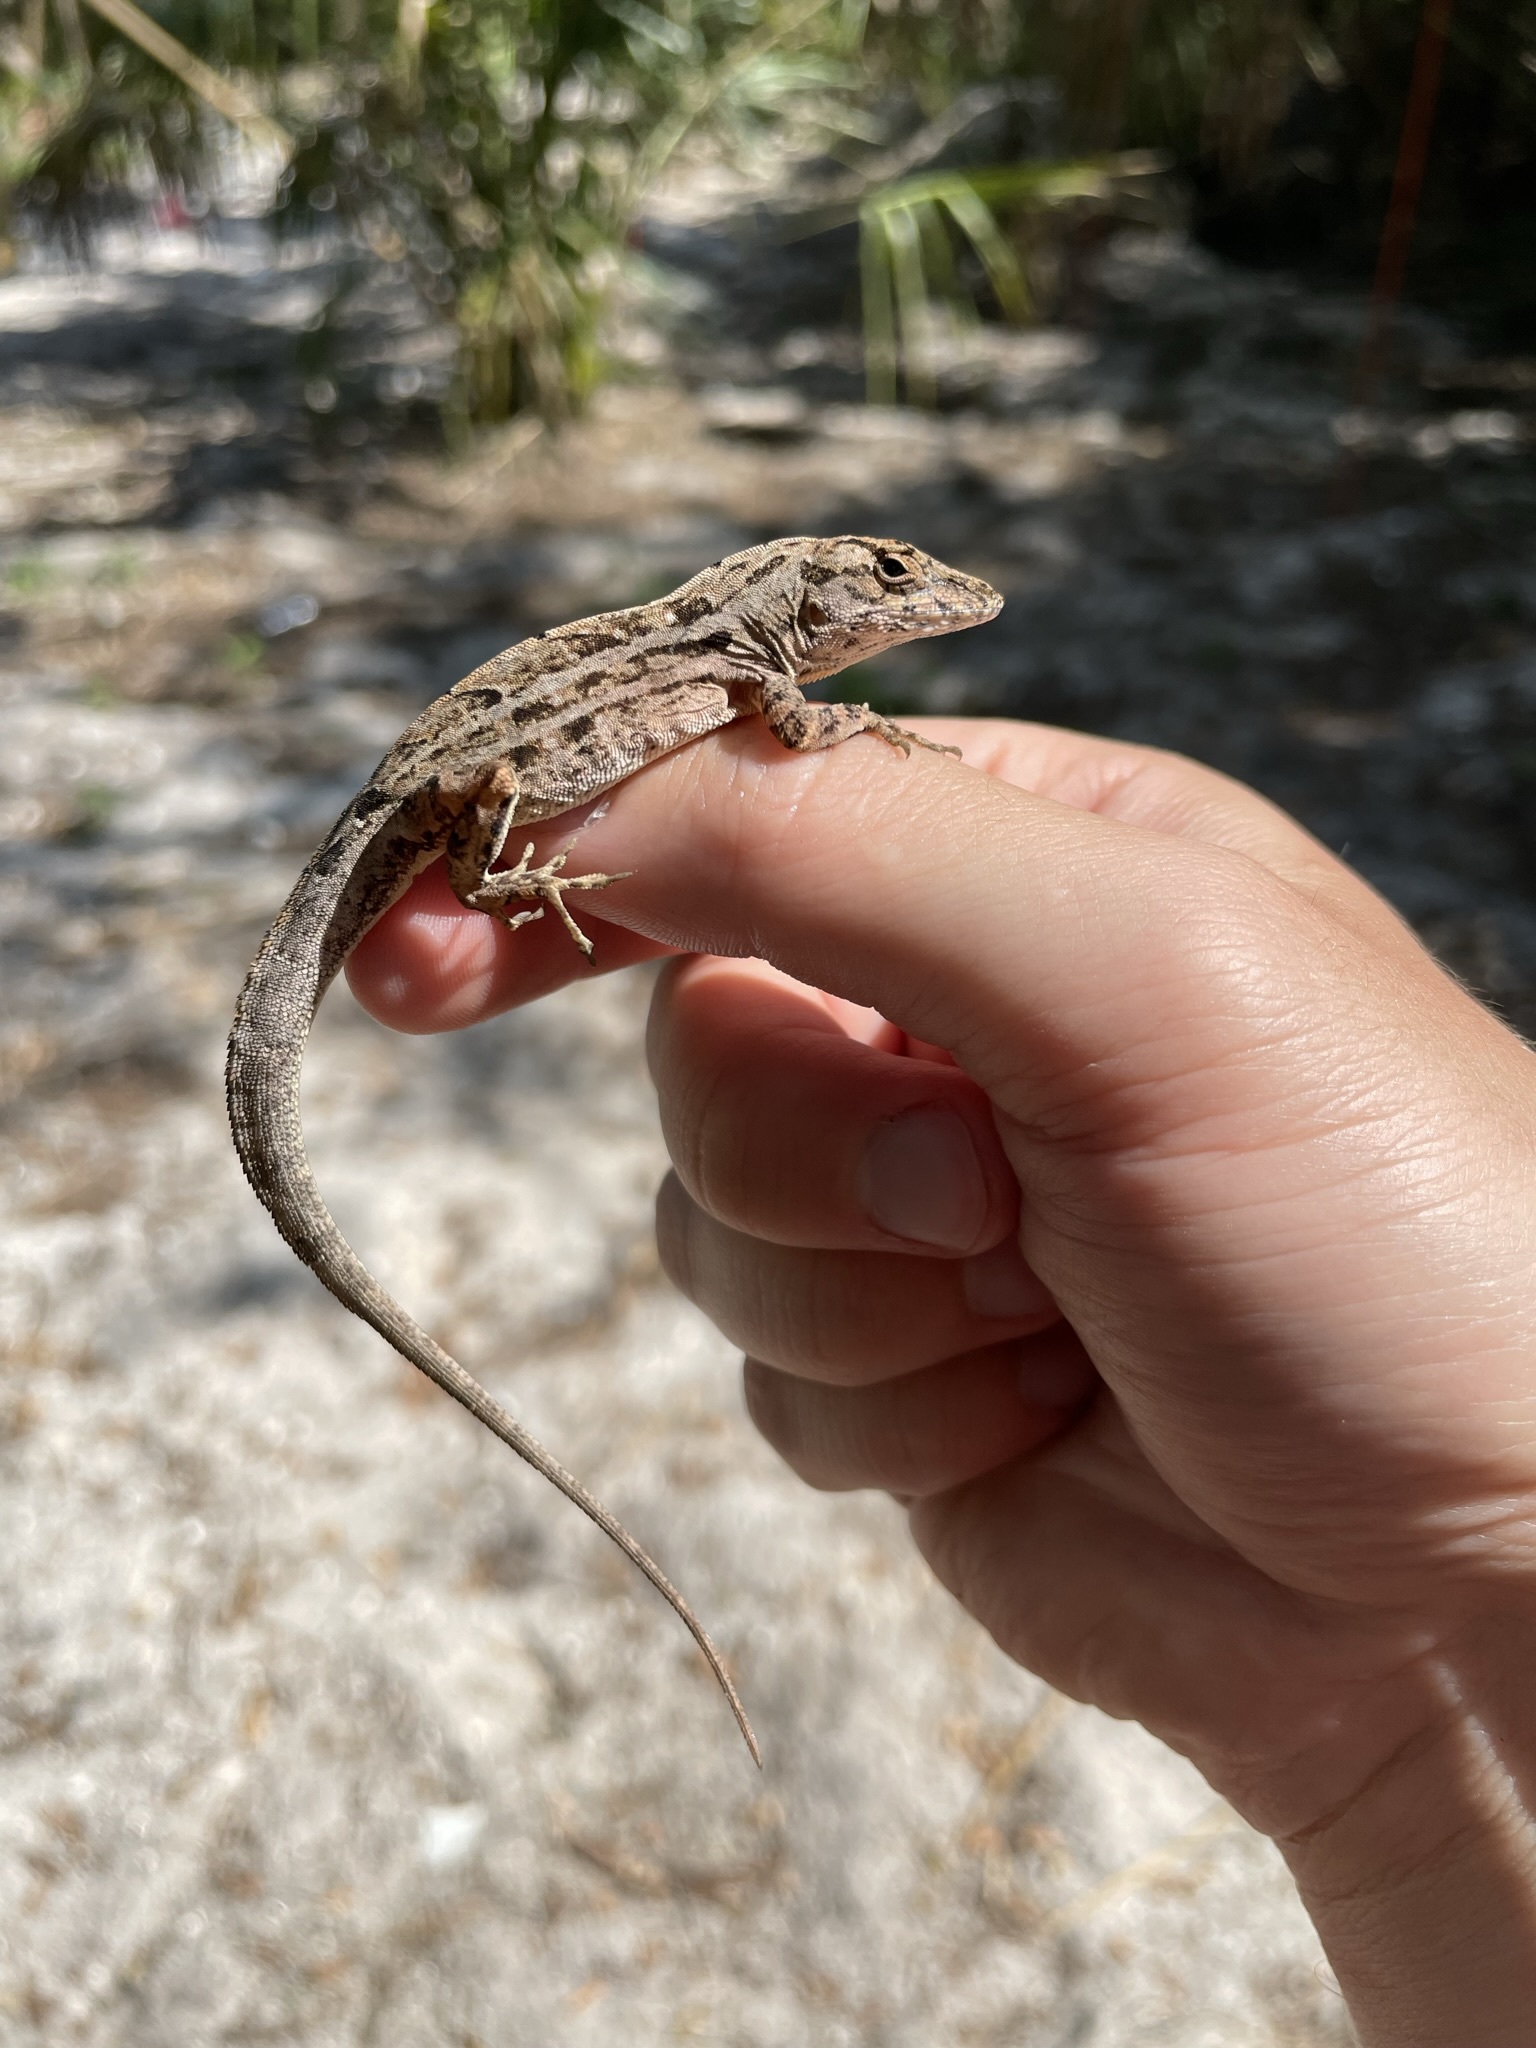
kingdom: Animalia
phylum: Chordata
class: Squamata
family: Dactyloidae
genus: Anolis
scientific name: Anolis sagrei
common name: Brown anole
